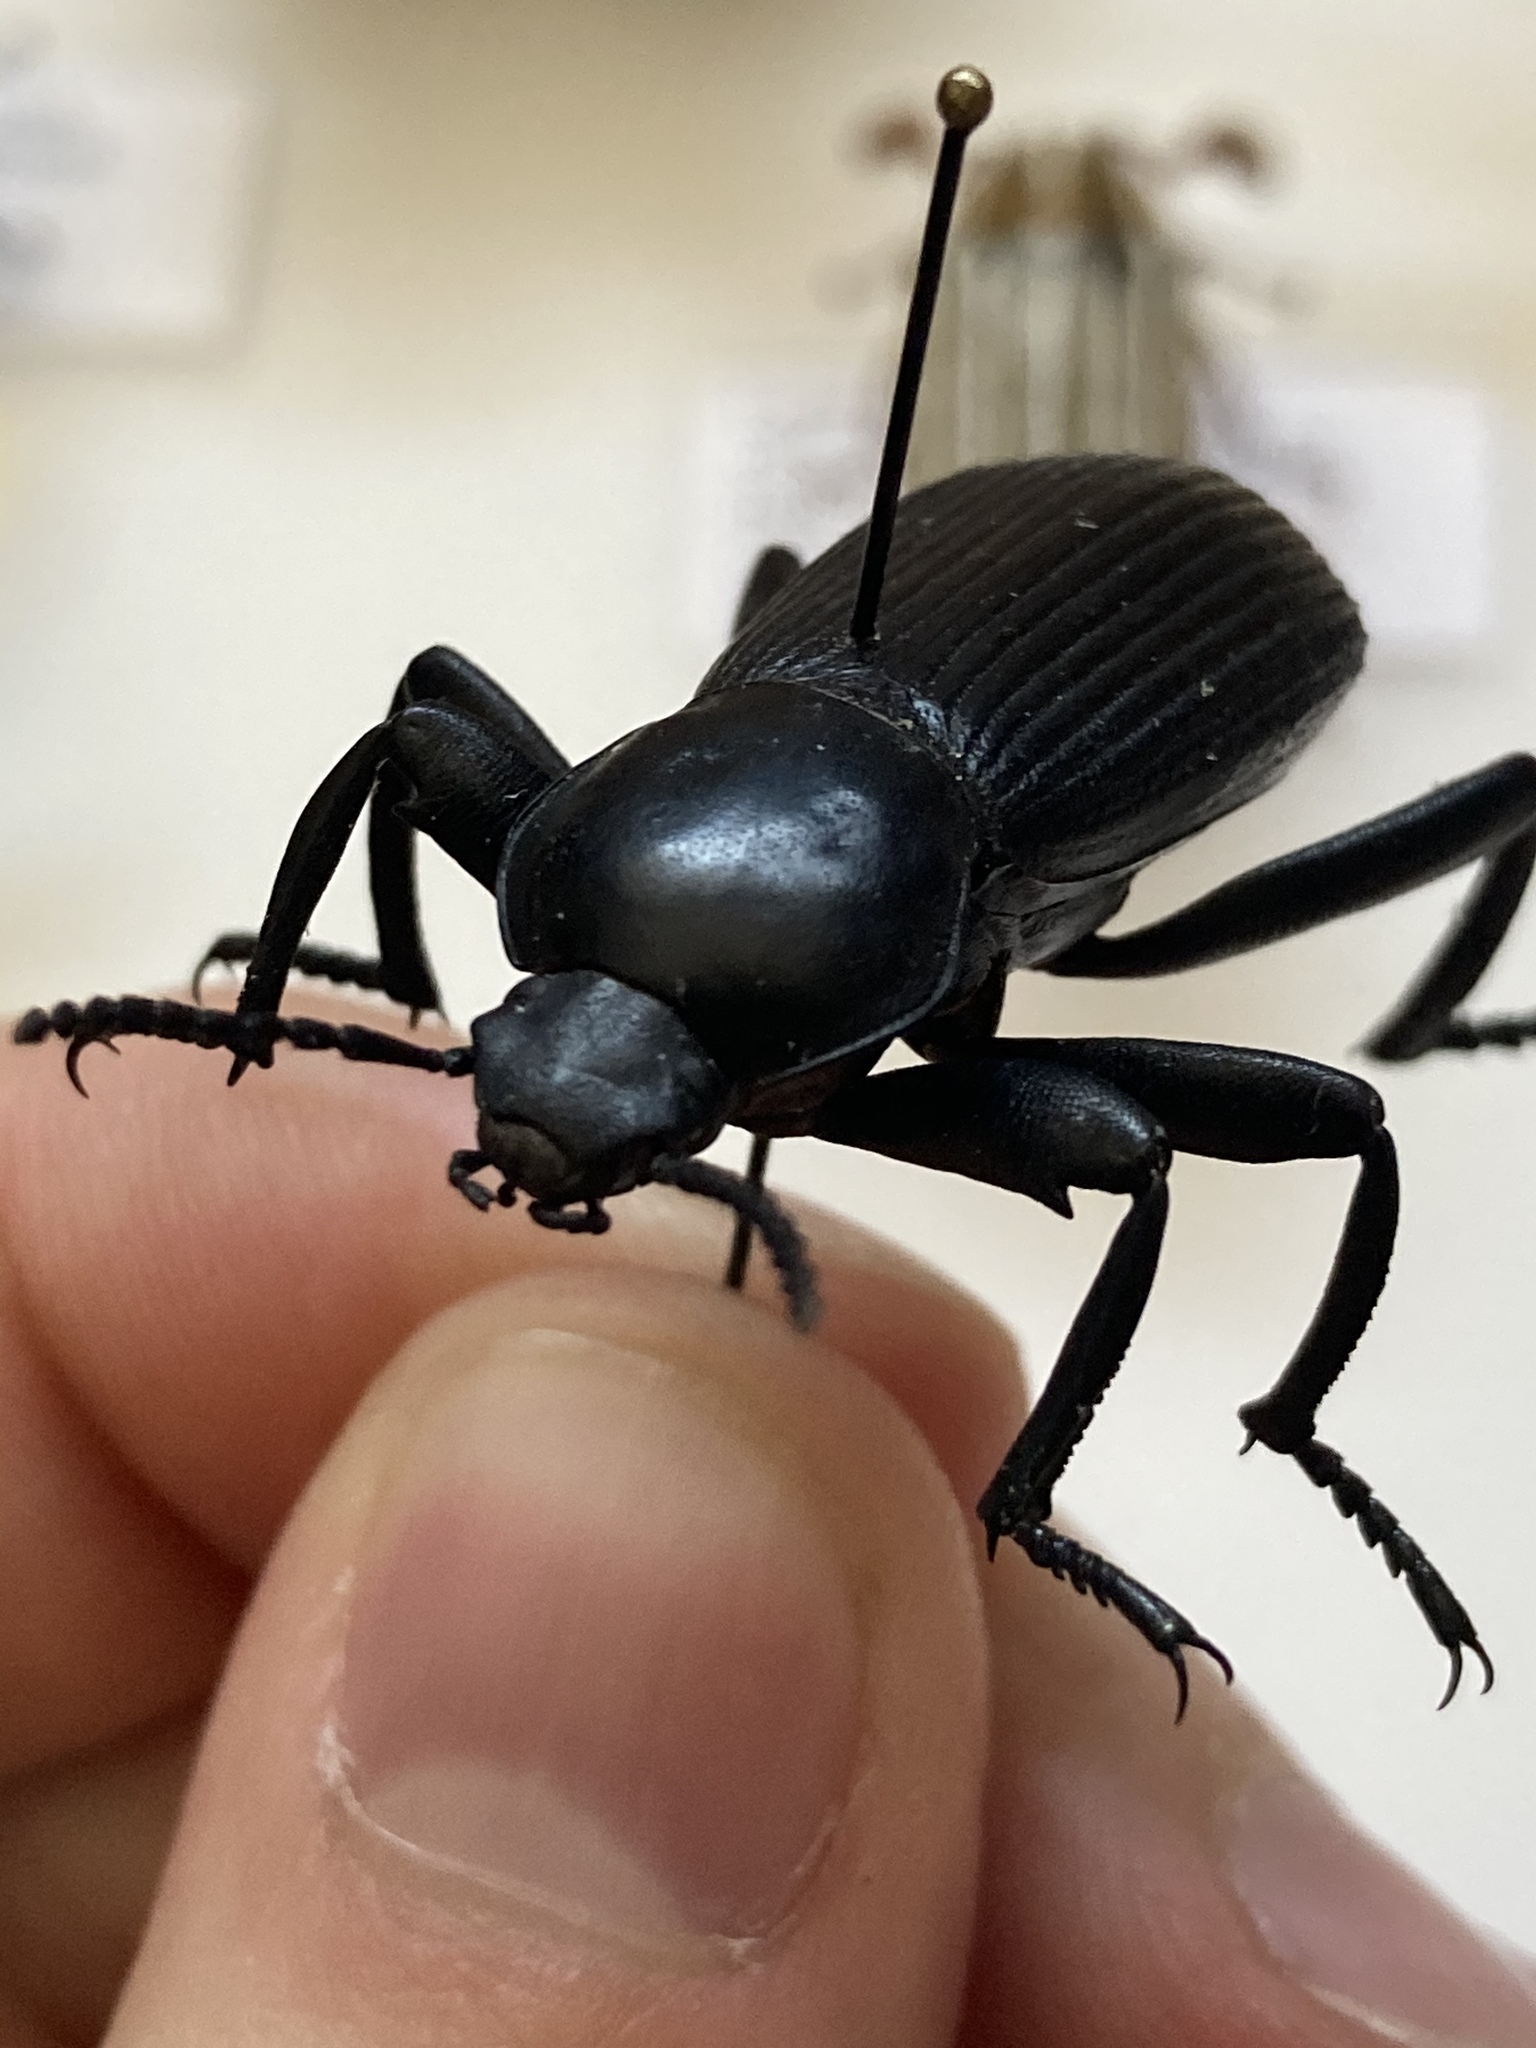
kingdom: Animalia
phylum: Arthropoda
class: Insecta
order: Coleoptera
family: Tenebrionidae
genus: Eleodes
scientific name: Eleodes obscura
